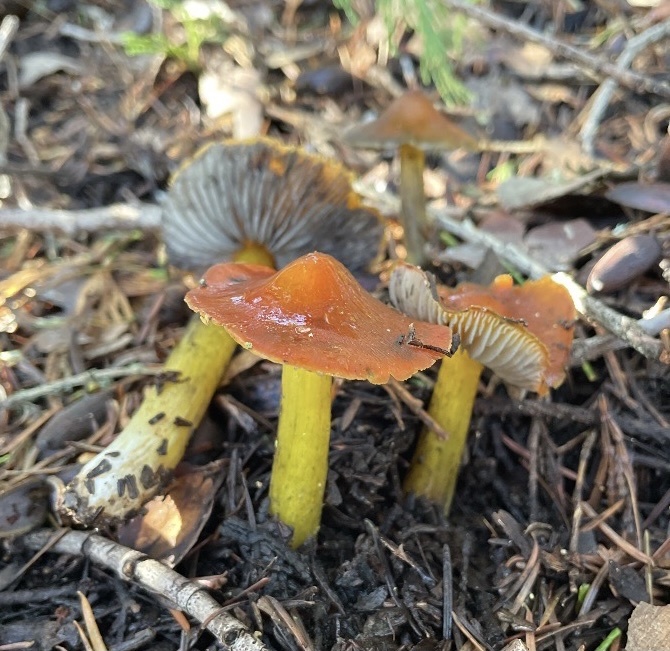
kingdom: Fungi
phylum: Basidiomycota
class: Agaricomycetes
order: Agaricales
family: Hygrophoraceae
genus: Hygrocybe
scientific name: Hygrocybe singeri
